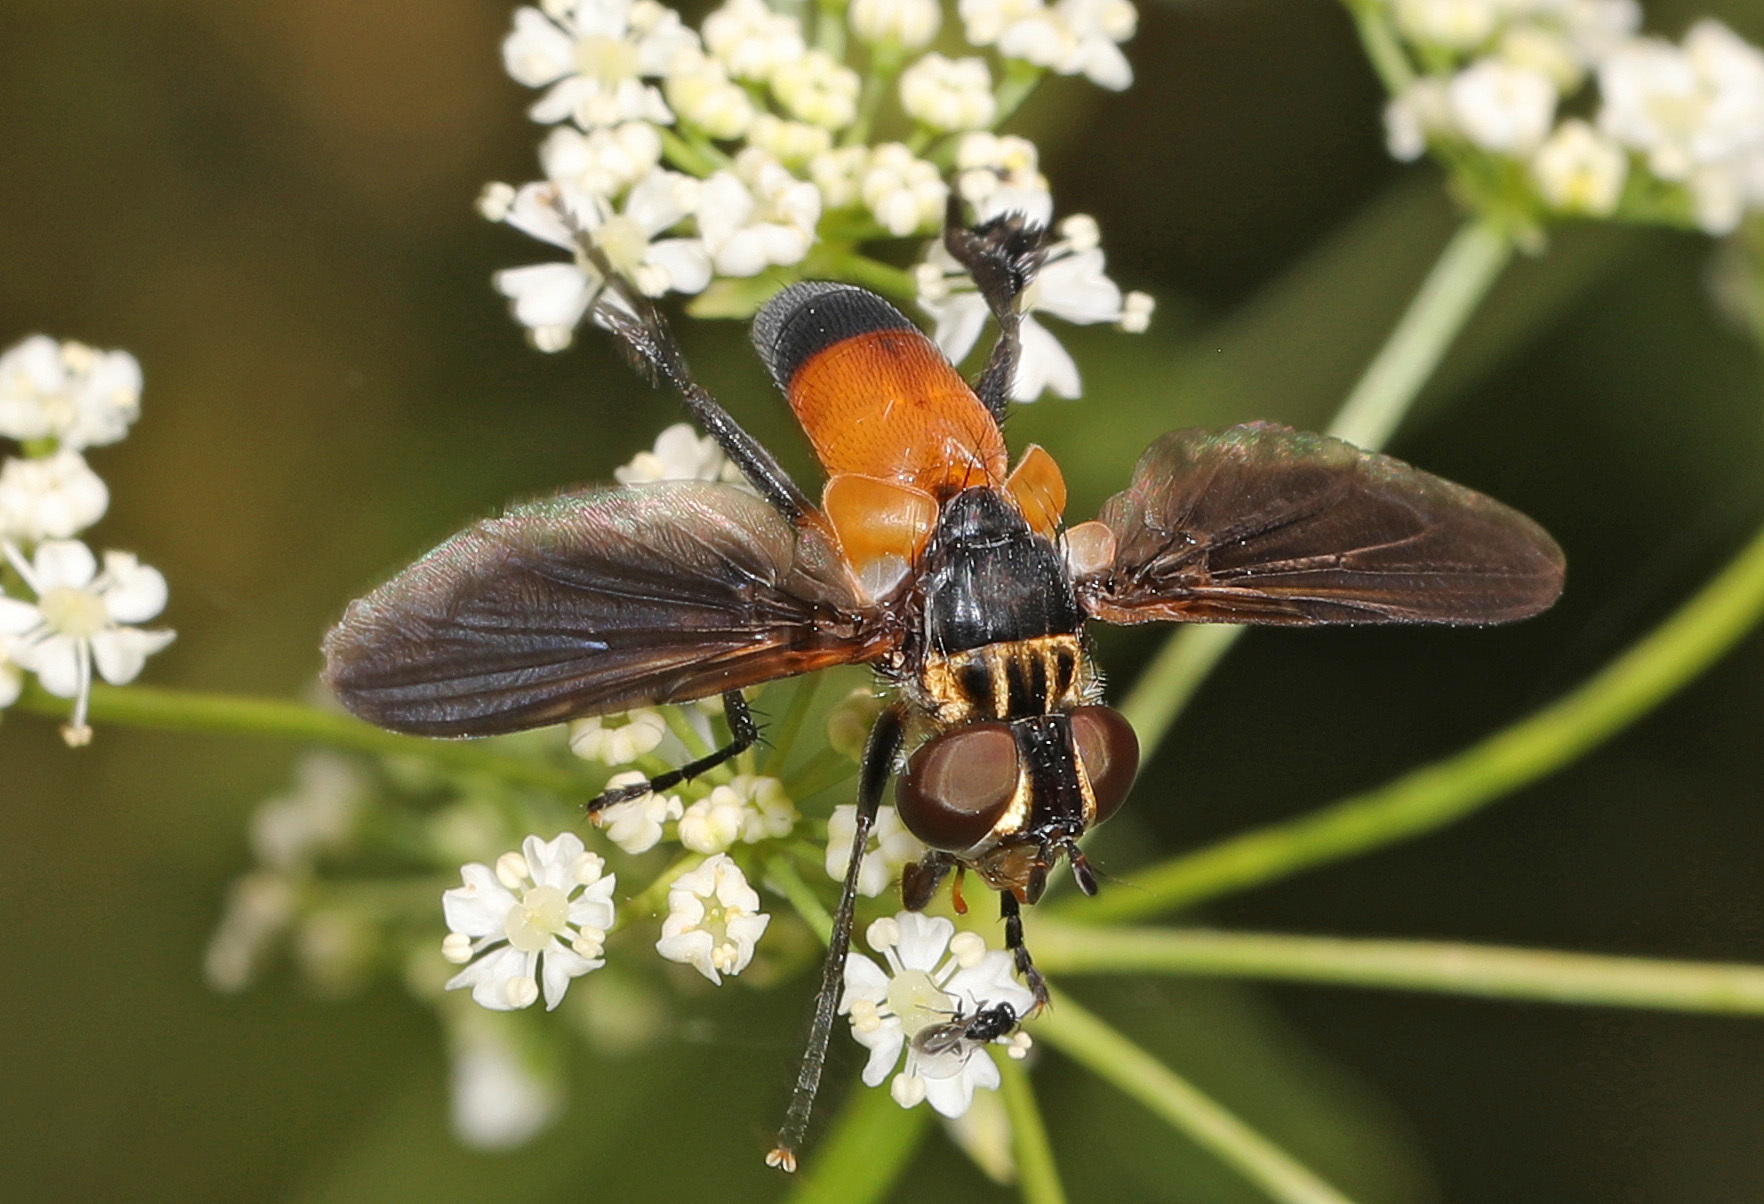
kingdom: Animalia
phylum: Arthropoda
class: Insecta
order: Diptera
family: Tachinidae
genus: Trichopoda
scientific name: Trichopoda pennipes
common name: Tachinid fly
